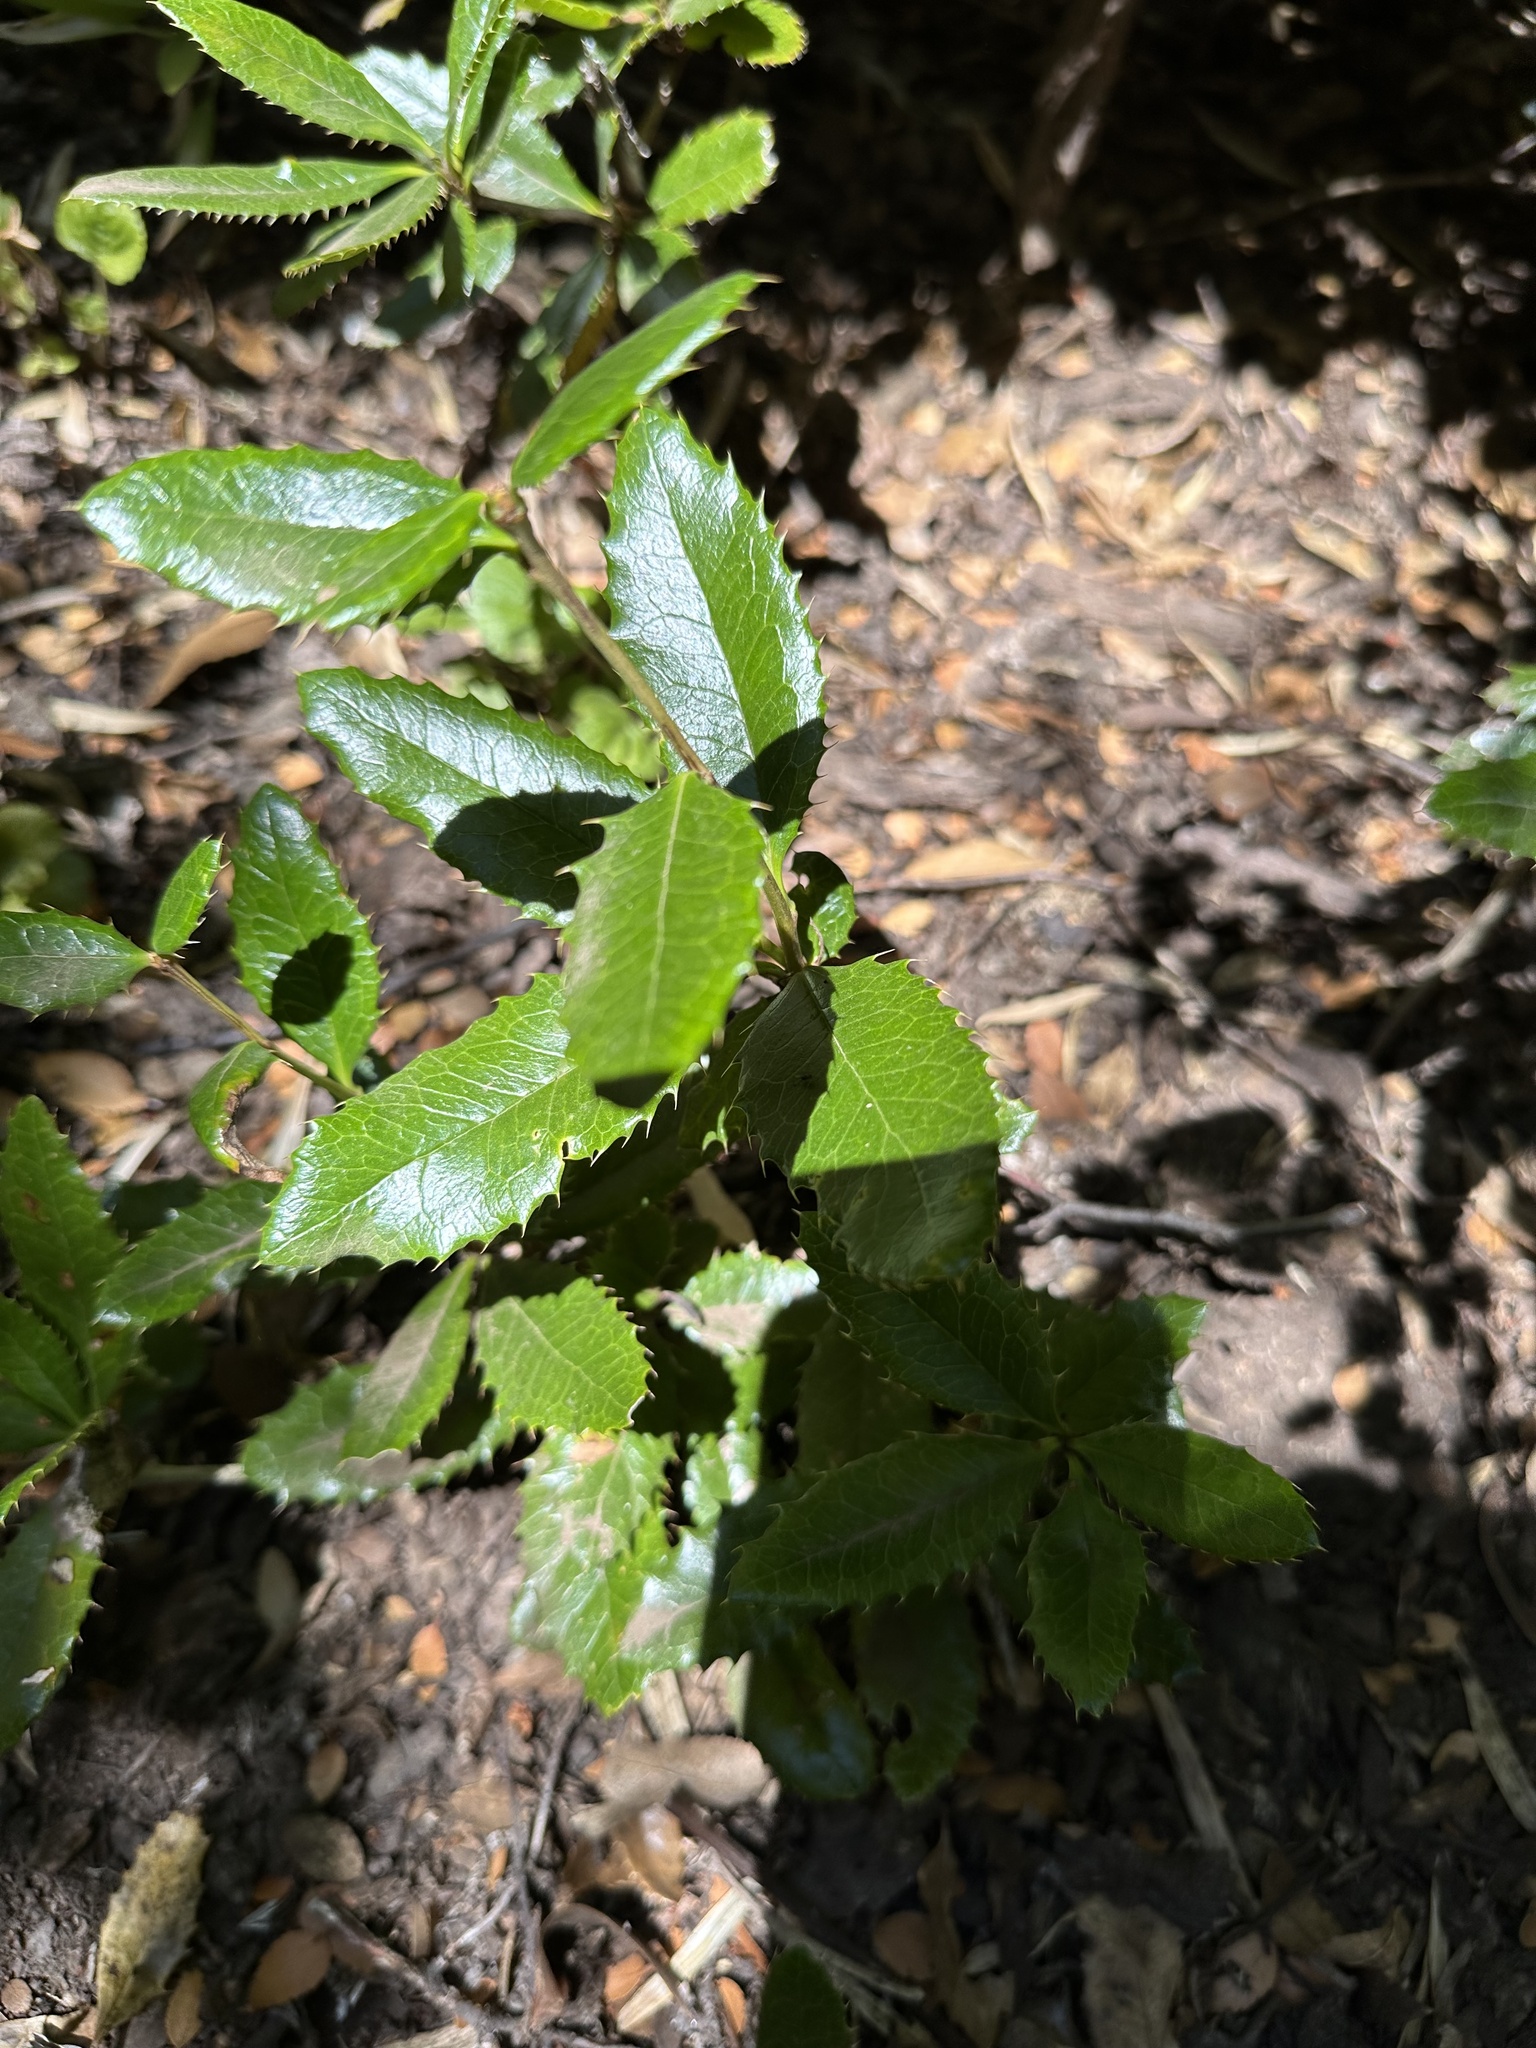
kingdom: Plantae
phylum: Tracheophyta
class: Magnoliopsida
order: Ranunculales
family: Berberidaceae
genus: Berberis
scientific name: Berberis pseudoilicifolia
